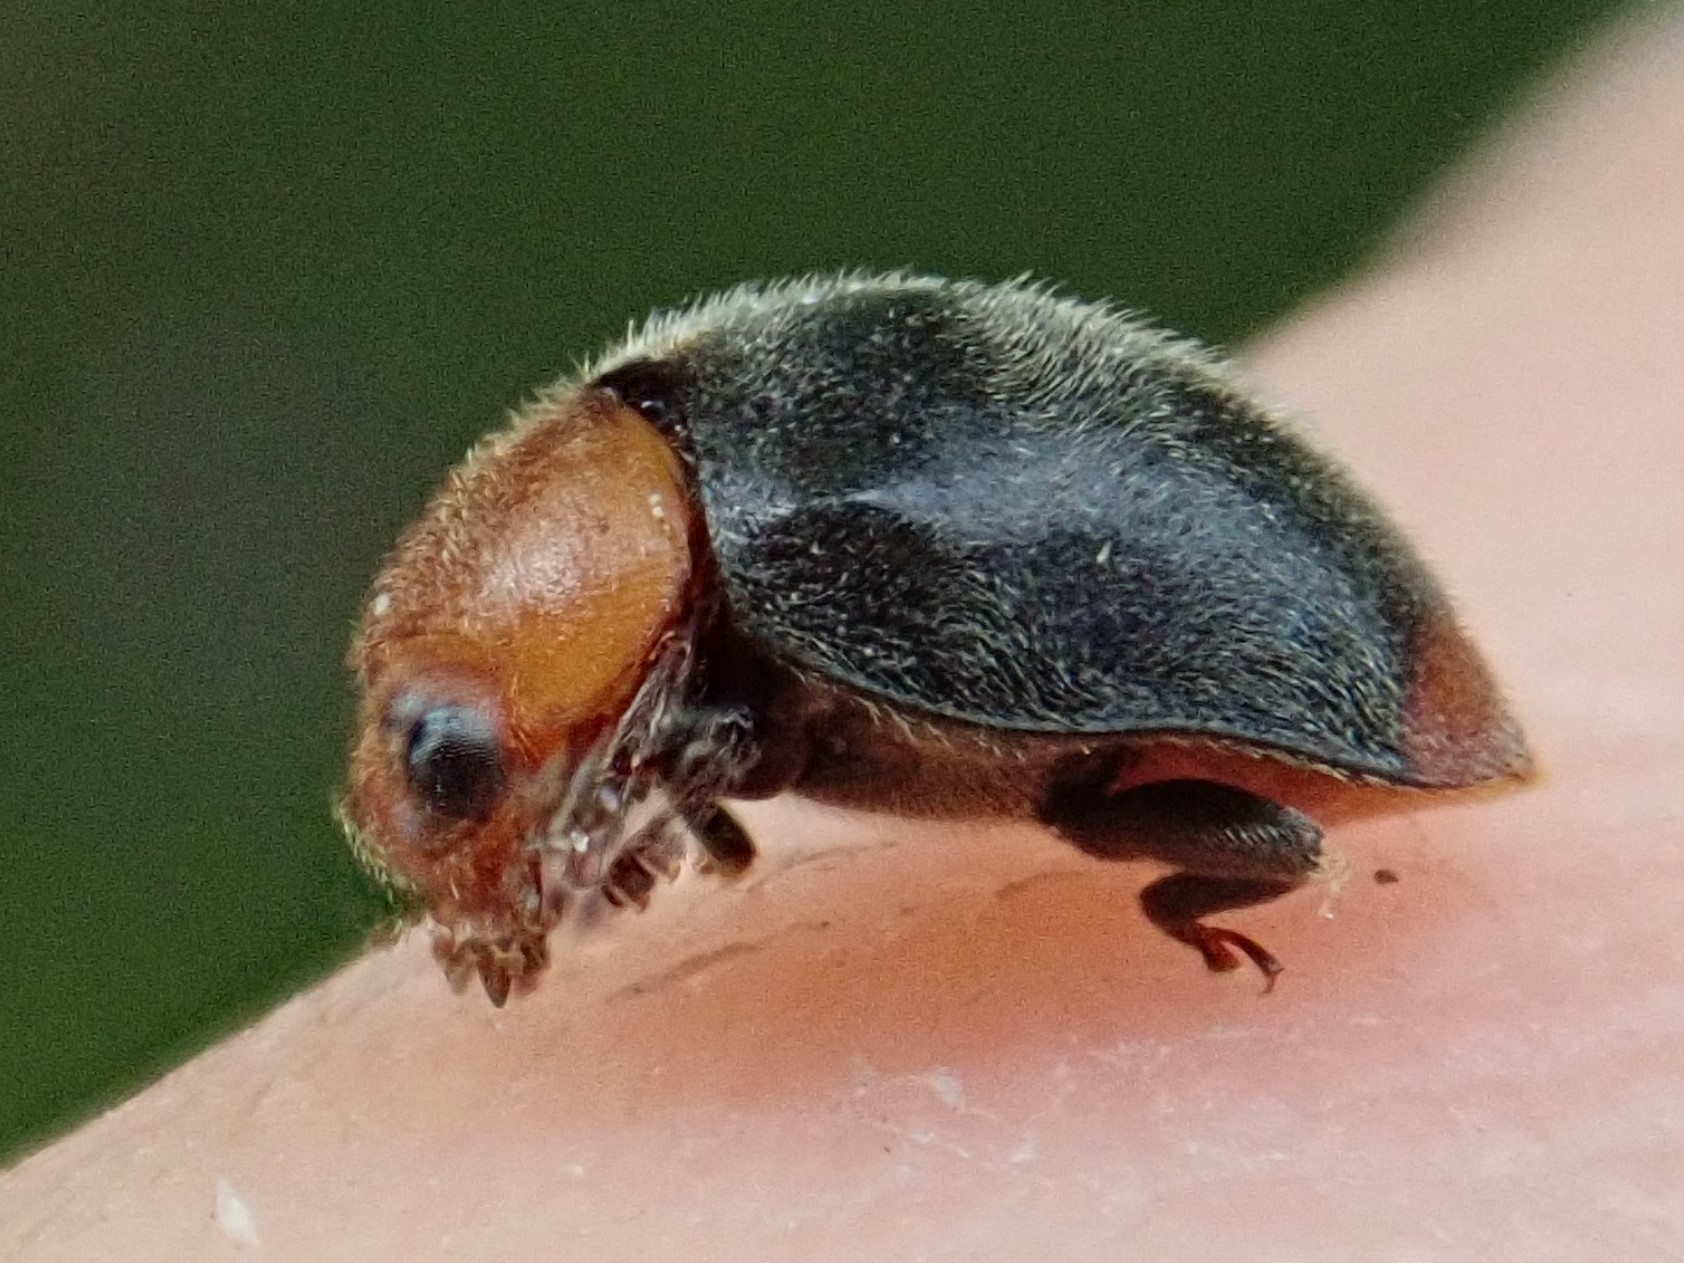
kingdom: Animalia
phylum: Arthropoda
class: Insecta
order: Coleoptera
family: Coccinellidae
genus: Cryptolaemus
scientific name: Cryptolaemus montrouzieri
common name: Mealybug destroyer
